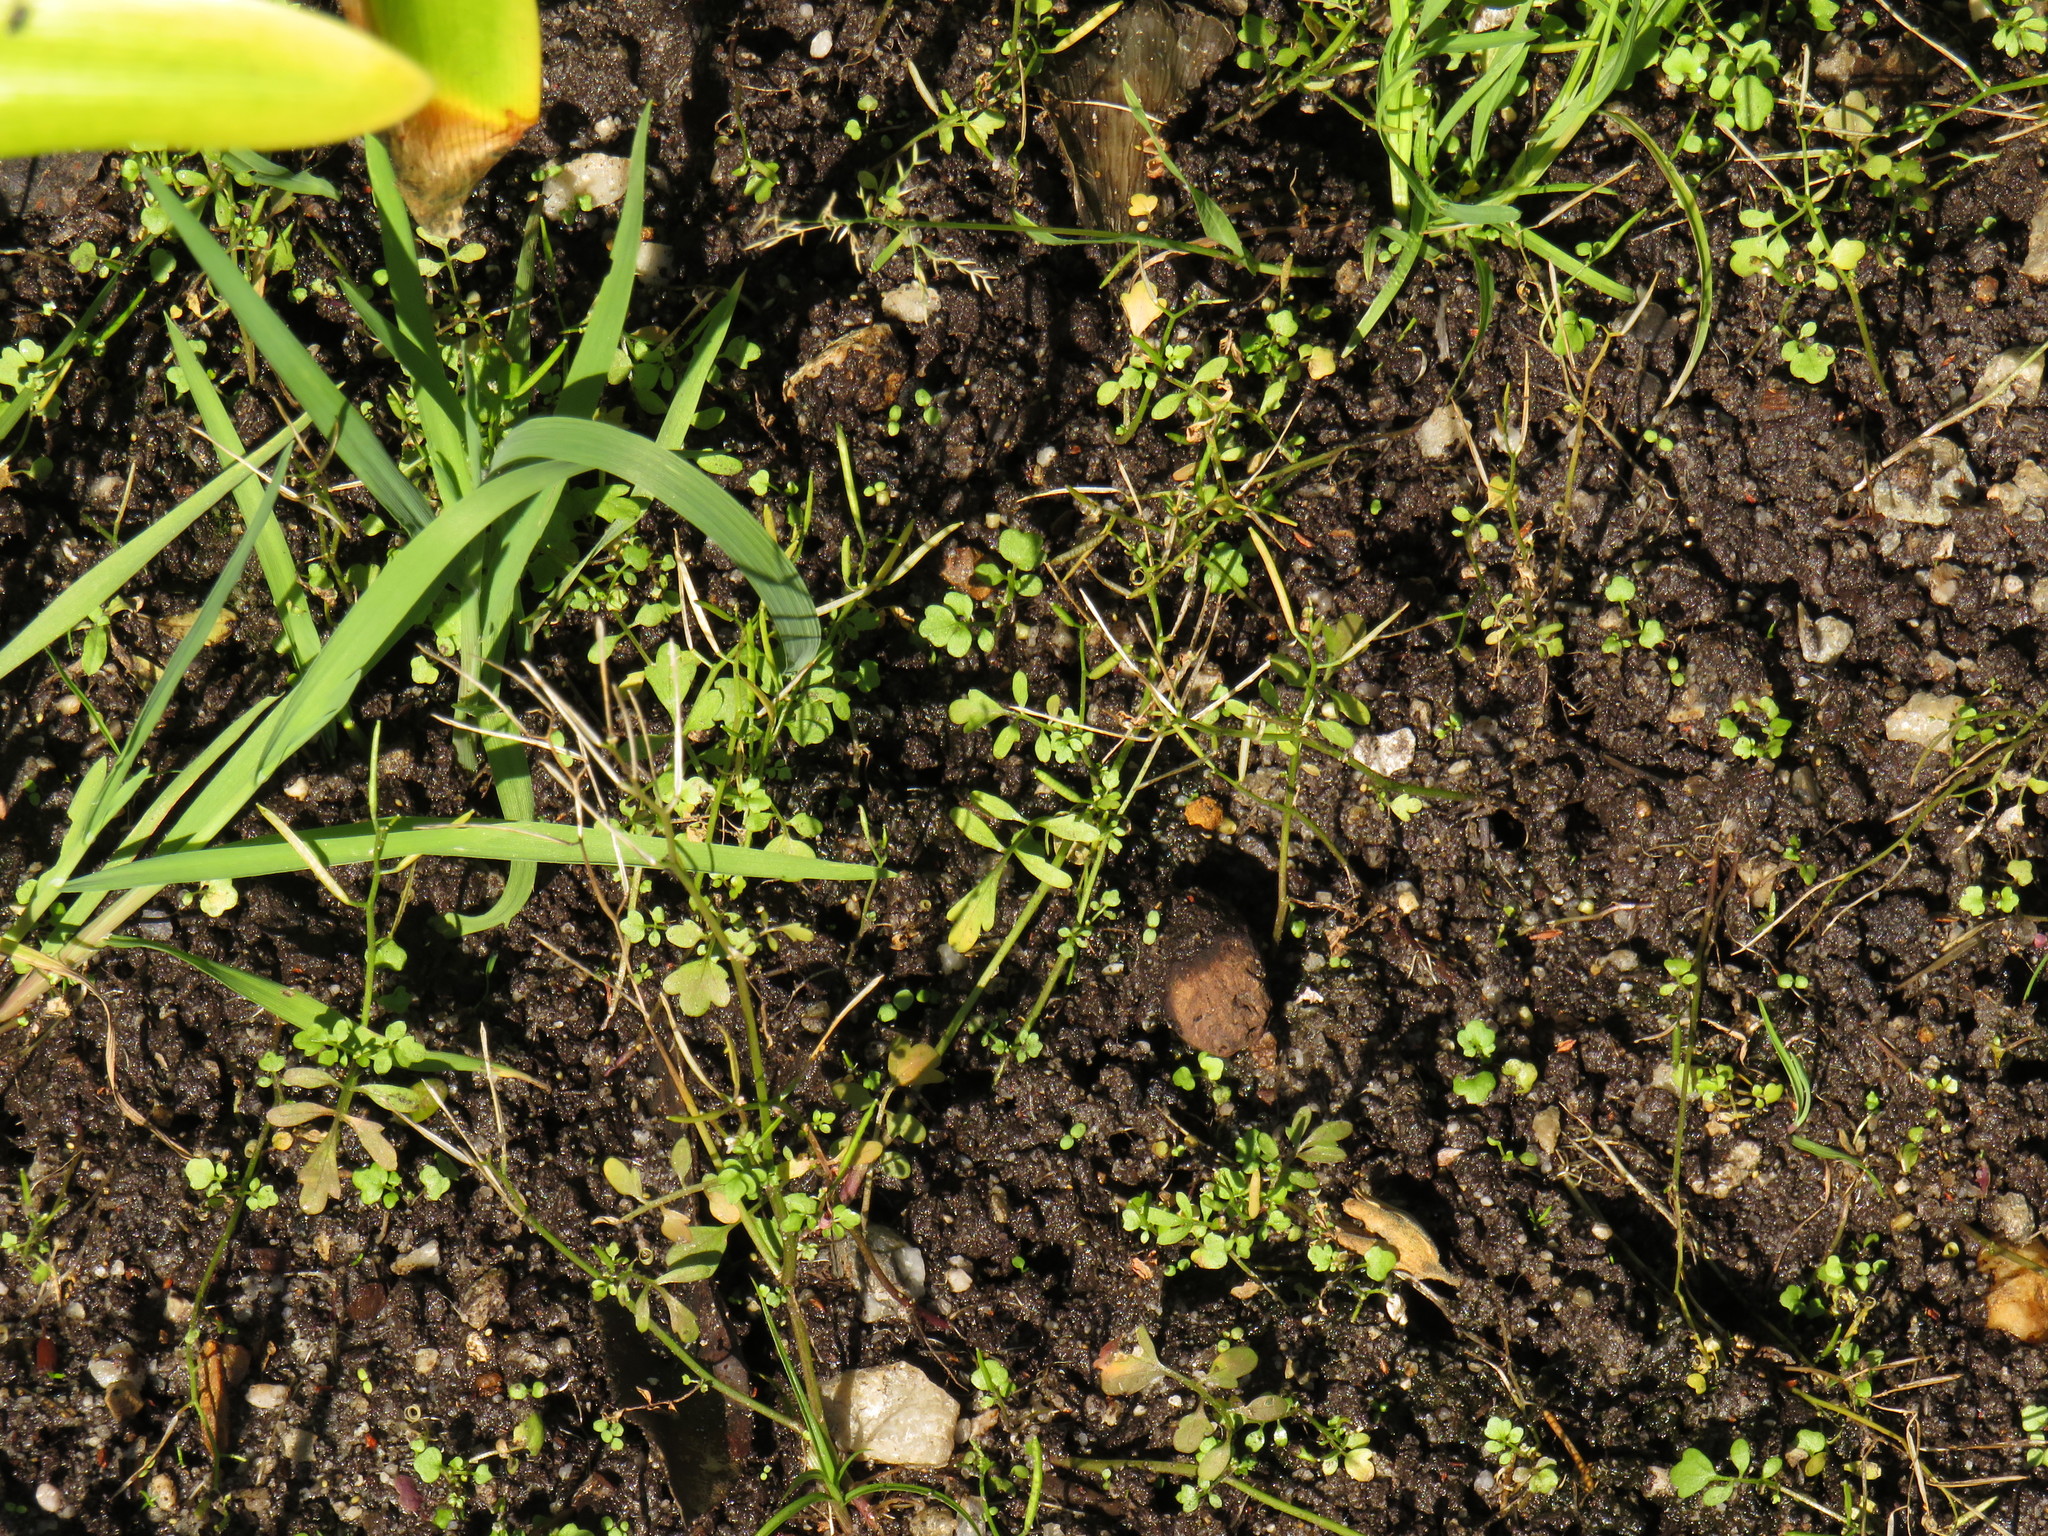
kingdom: Plantae
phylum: Tracheophyta
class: Magnoliopsida
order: Brassicales
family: Brassicaceae
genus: Cardamine
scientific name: Cardamine occulta
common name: Asian wavy bittercress
